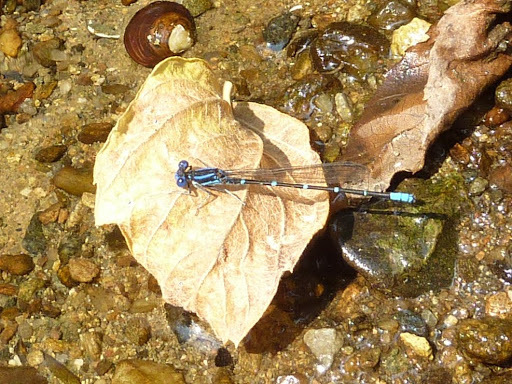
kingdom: Animalia
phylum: Arthropoda
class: Insecta
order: Odonata
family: Coenagrionidae
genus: Argia
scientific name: Argia sedula
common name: Blue-ringed dancer
